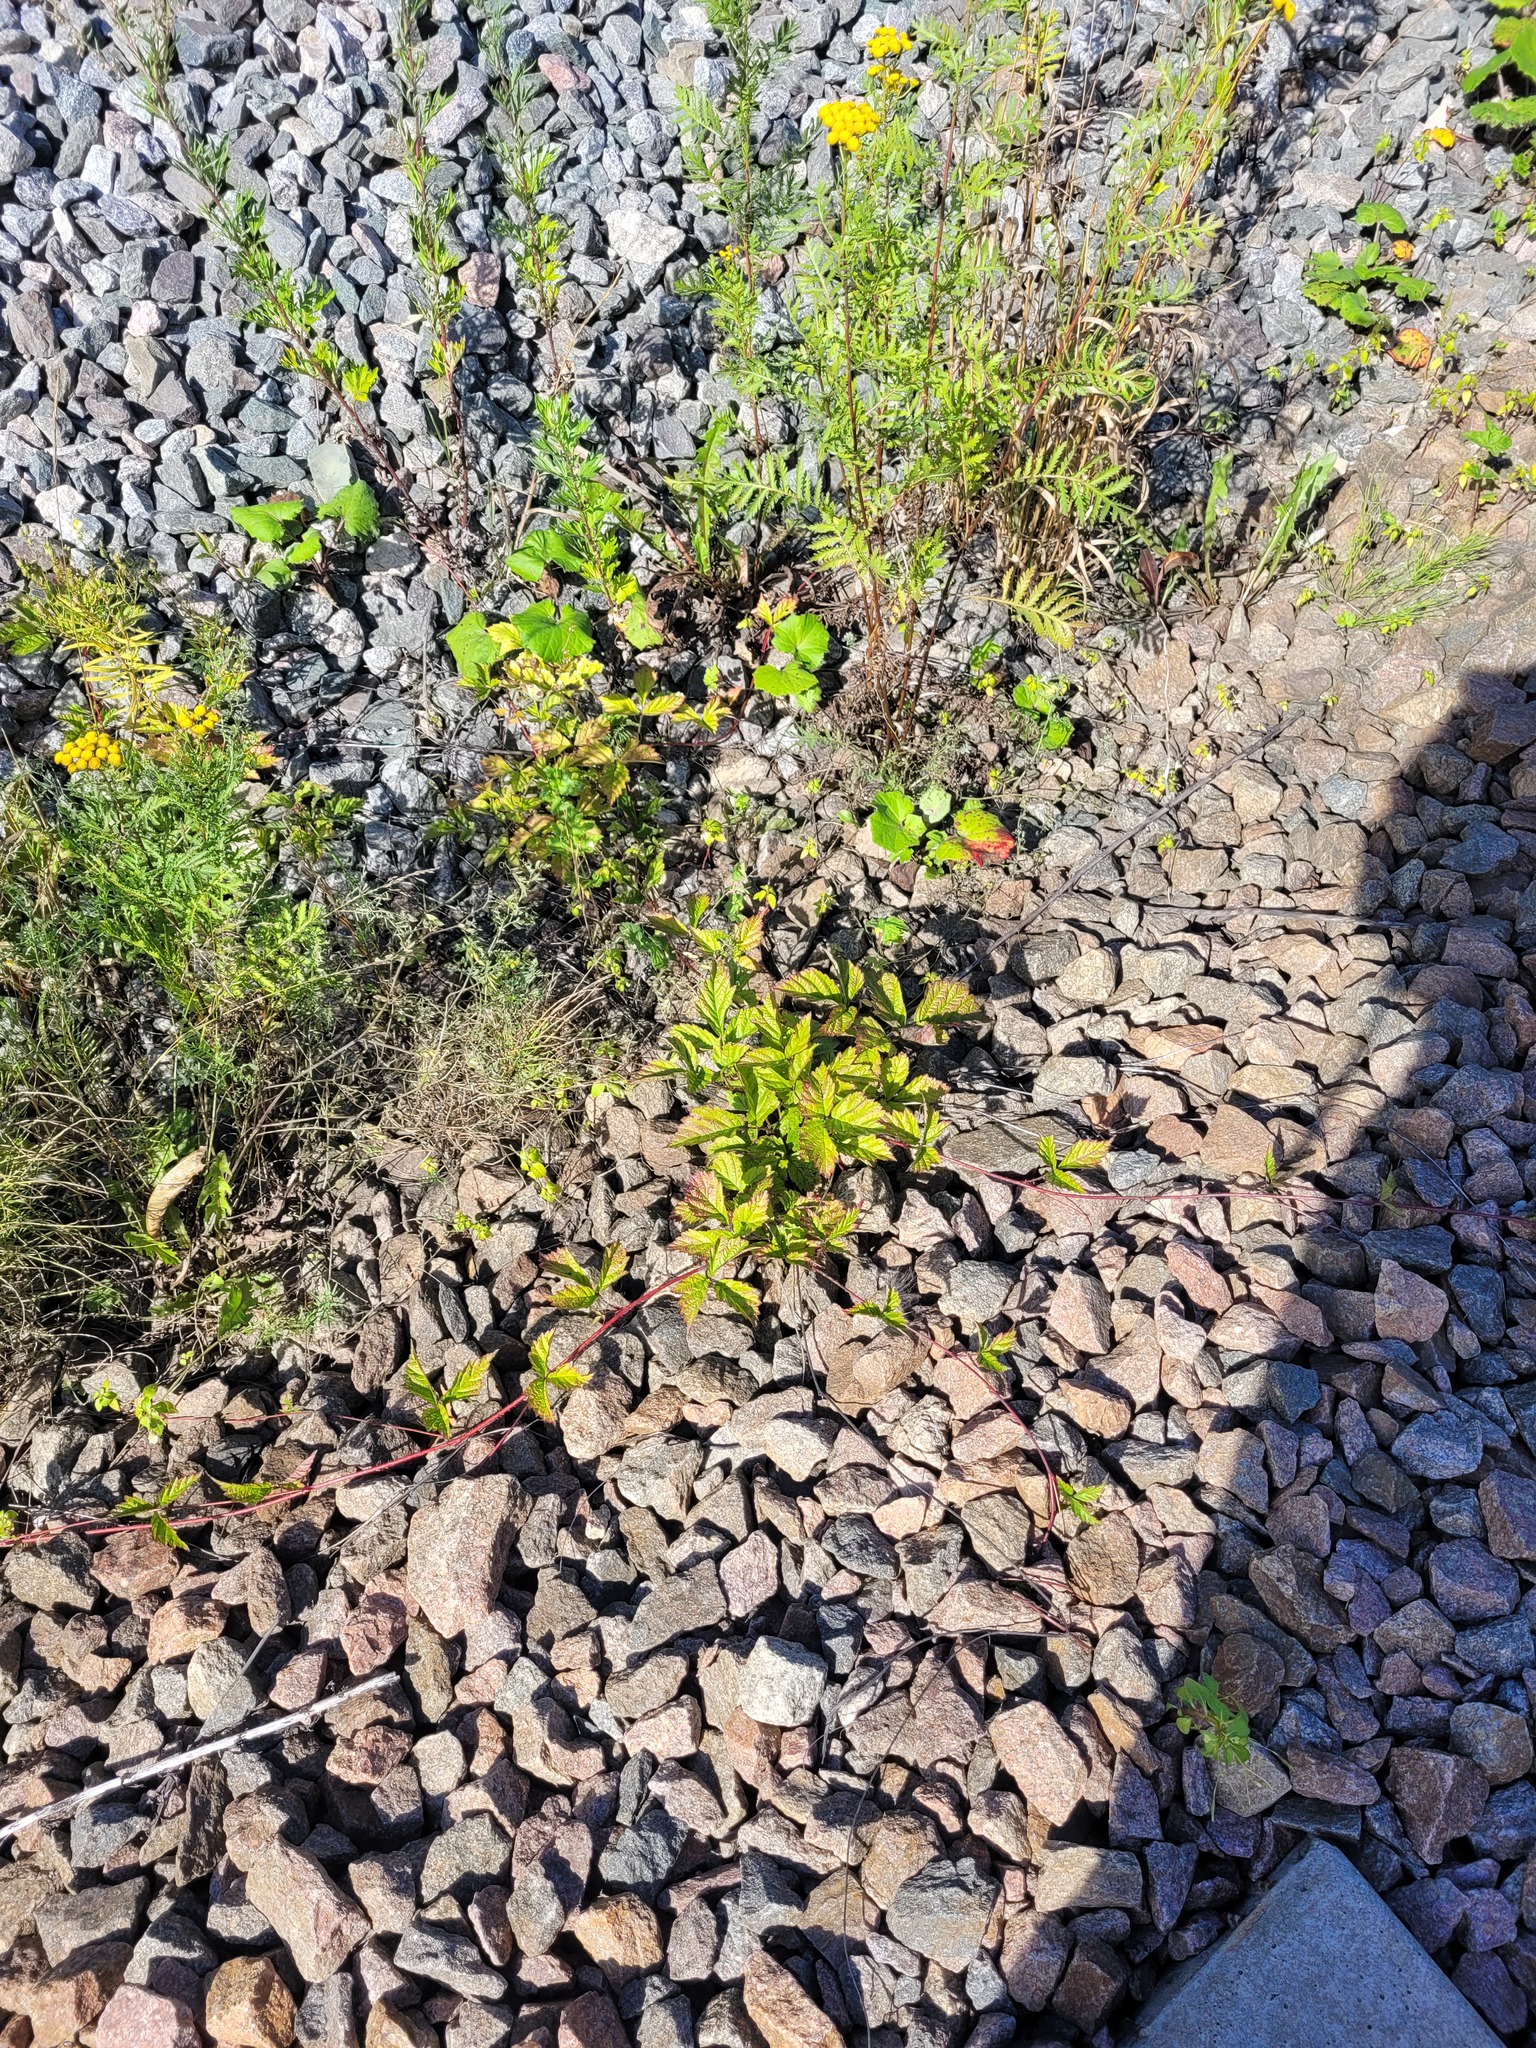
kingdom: Plantae
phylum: Tracheophyta
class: Magnoliopsida
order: Rosales
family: Rosaceae
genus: Rubus
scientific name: Rubus saxatilis
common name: Stone bramble
